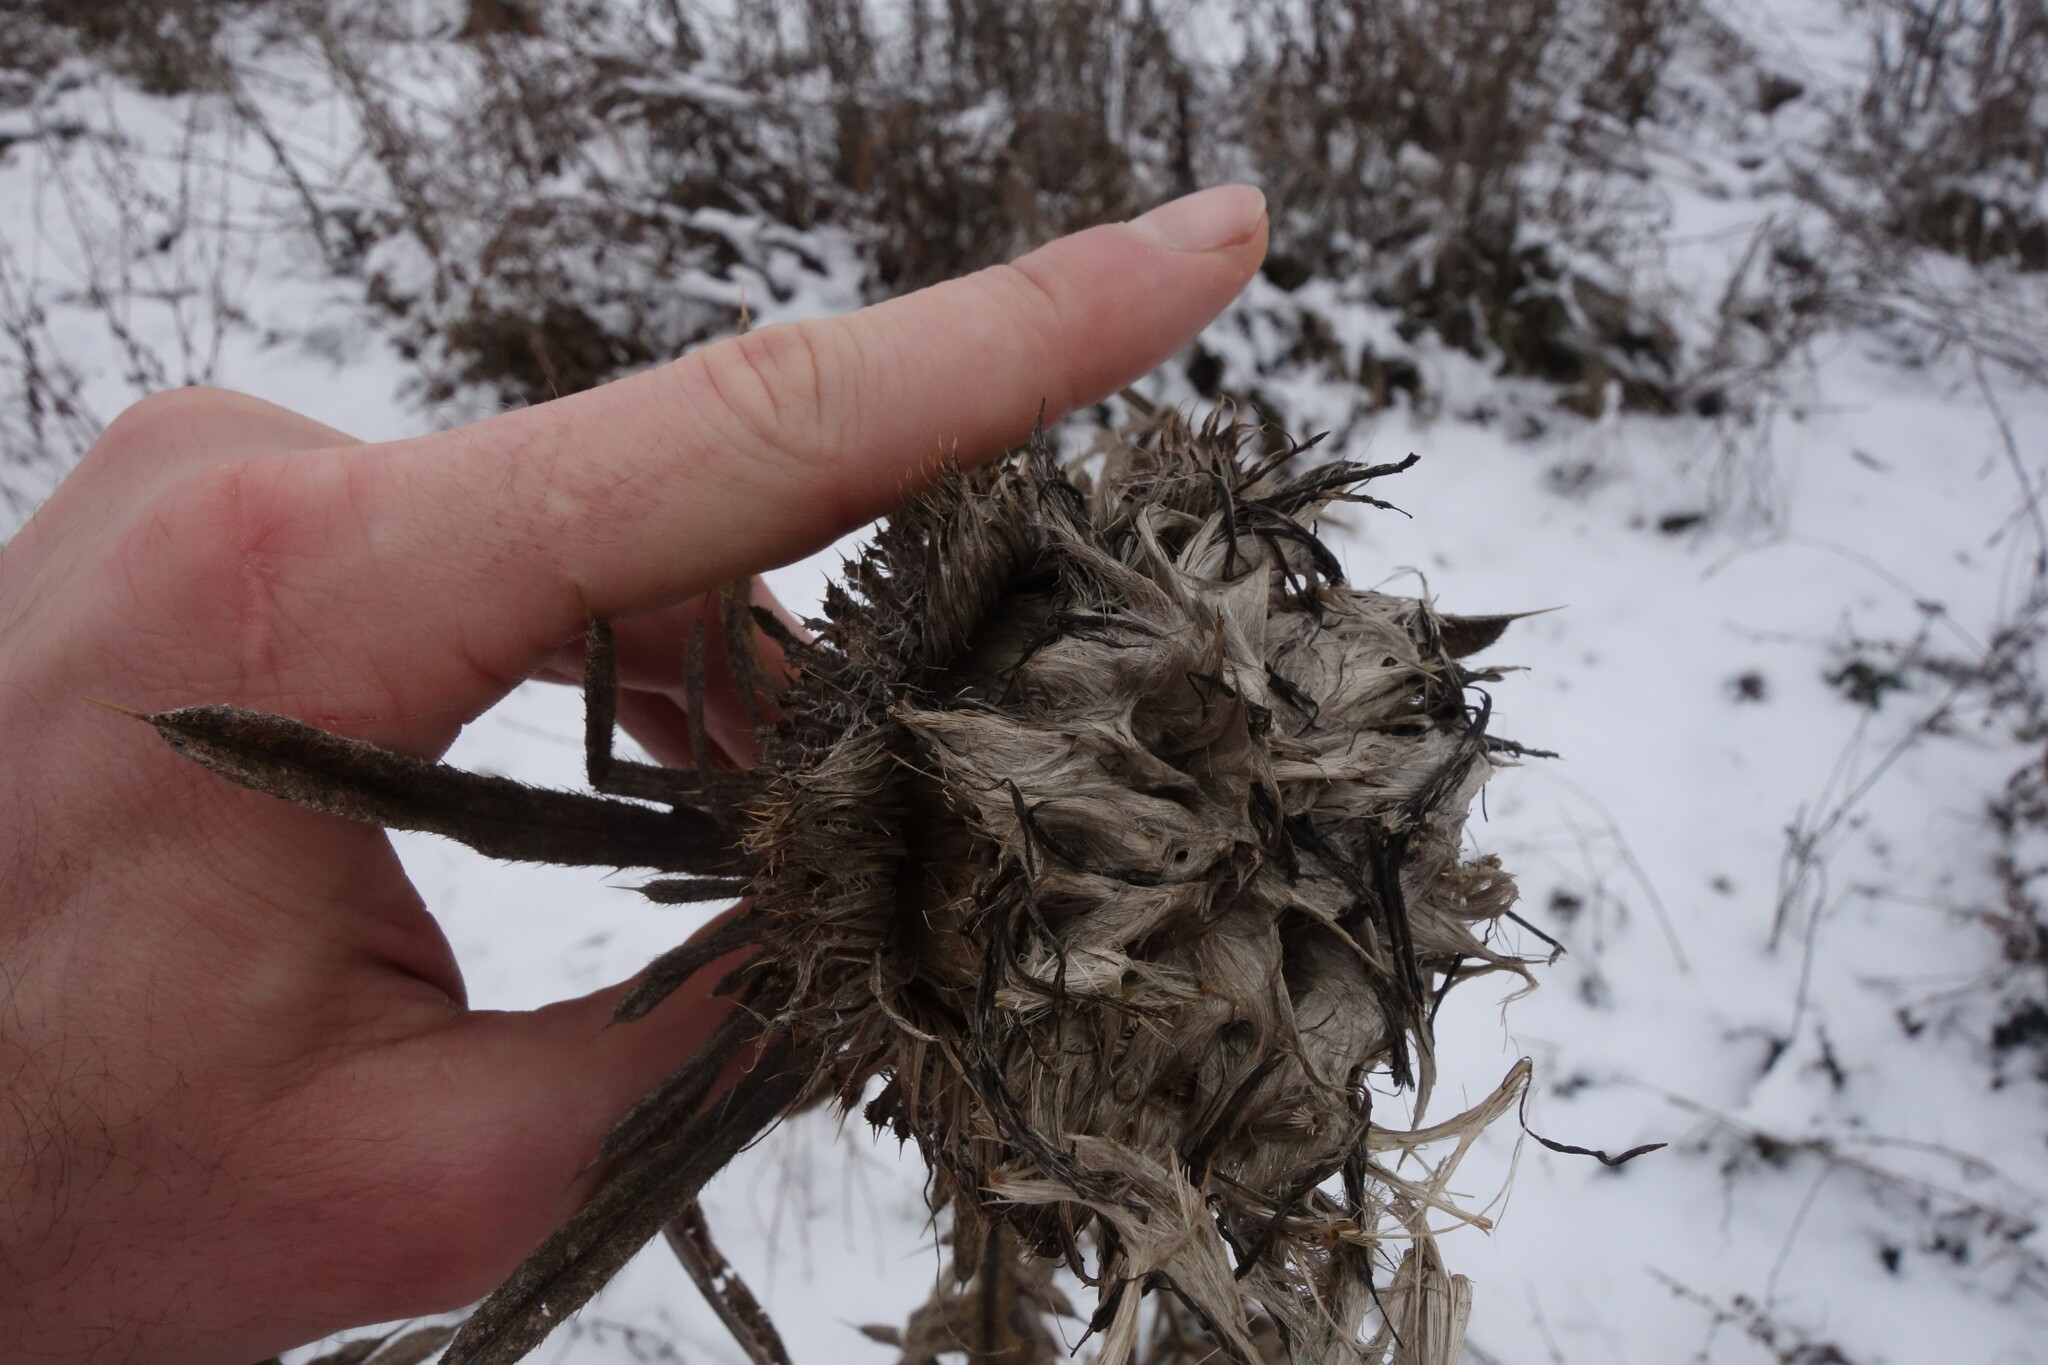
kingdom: Plantae
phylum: Tracheophyta
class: Magnoliopsida
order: Asterales
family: Asteraceae
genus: Lophiolepis
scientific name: Lophiolepis decussata
